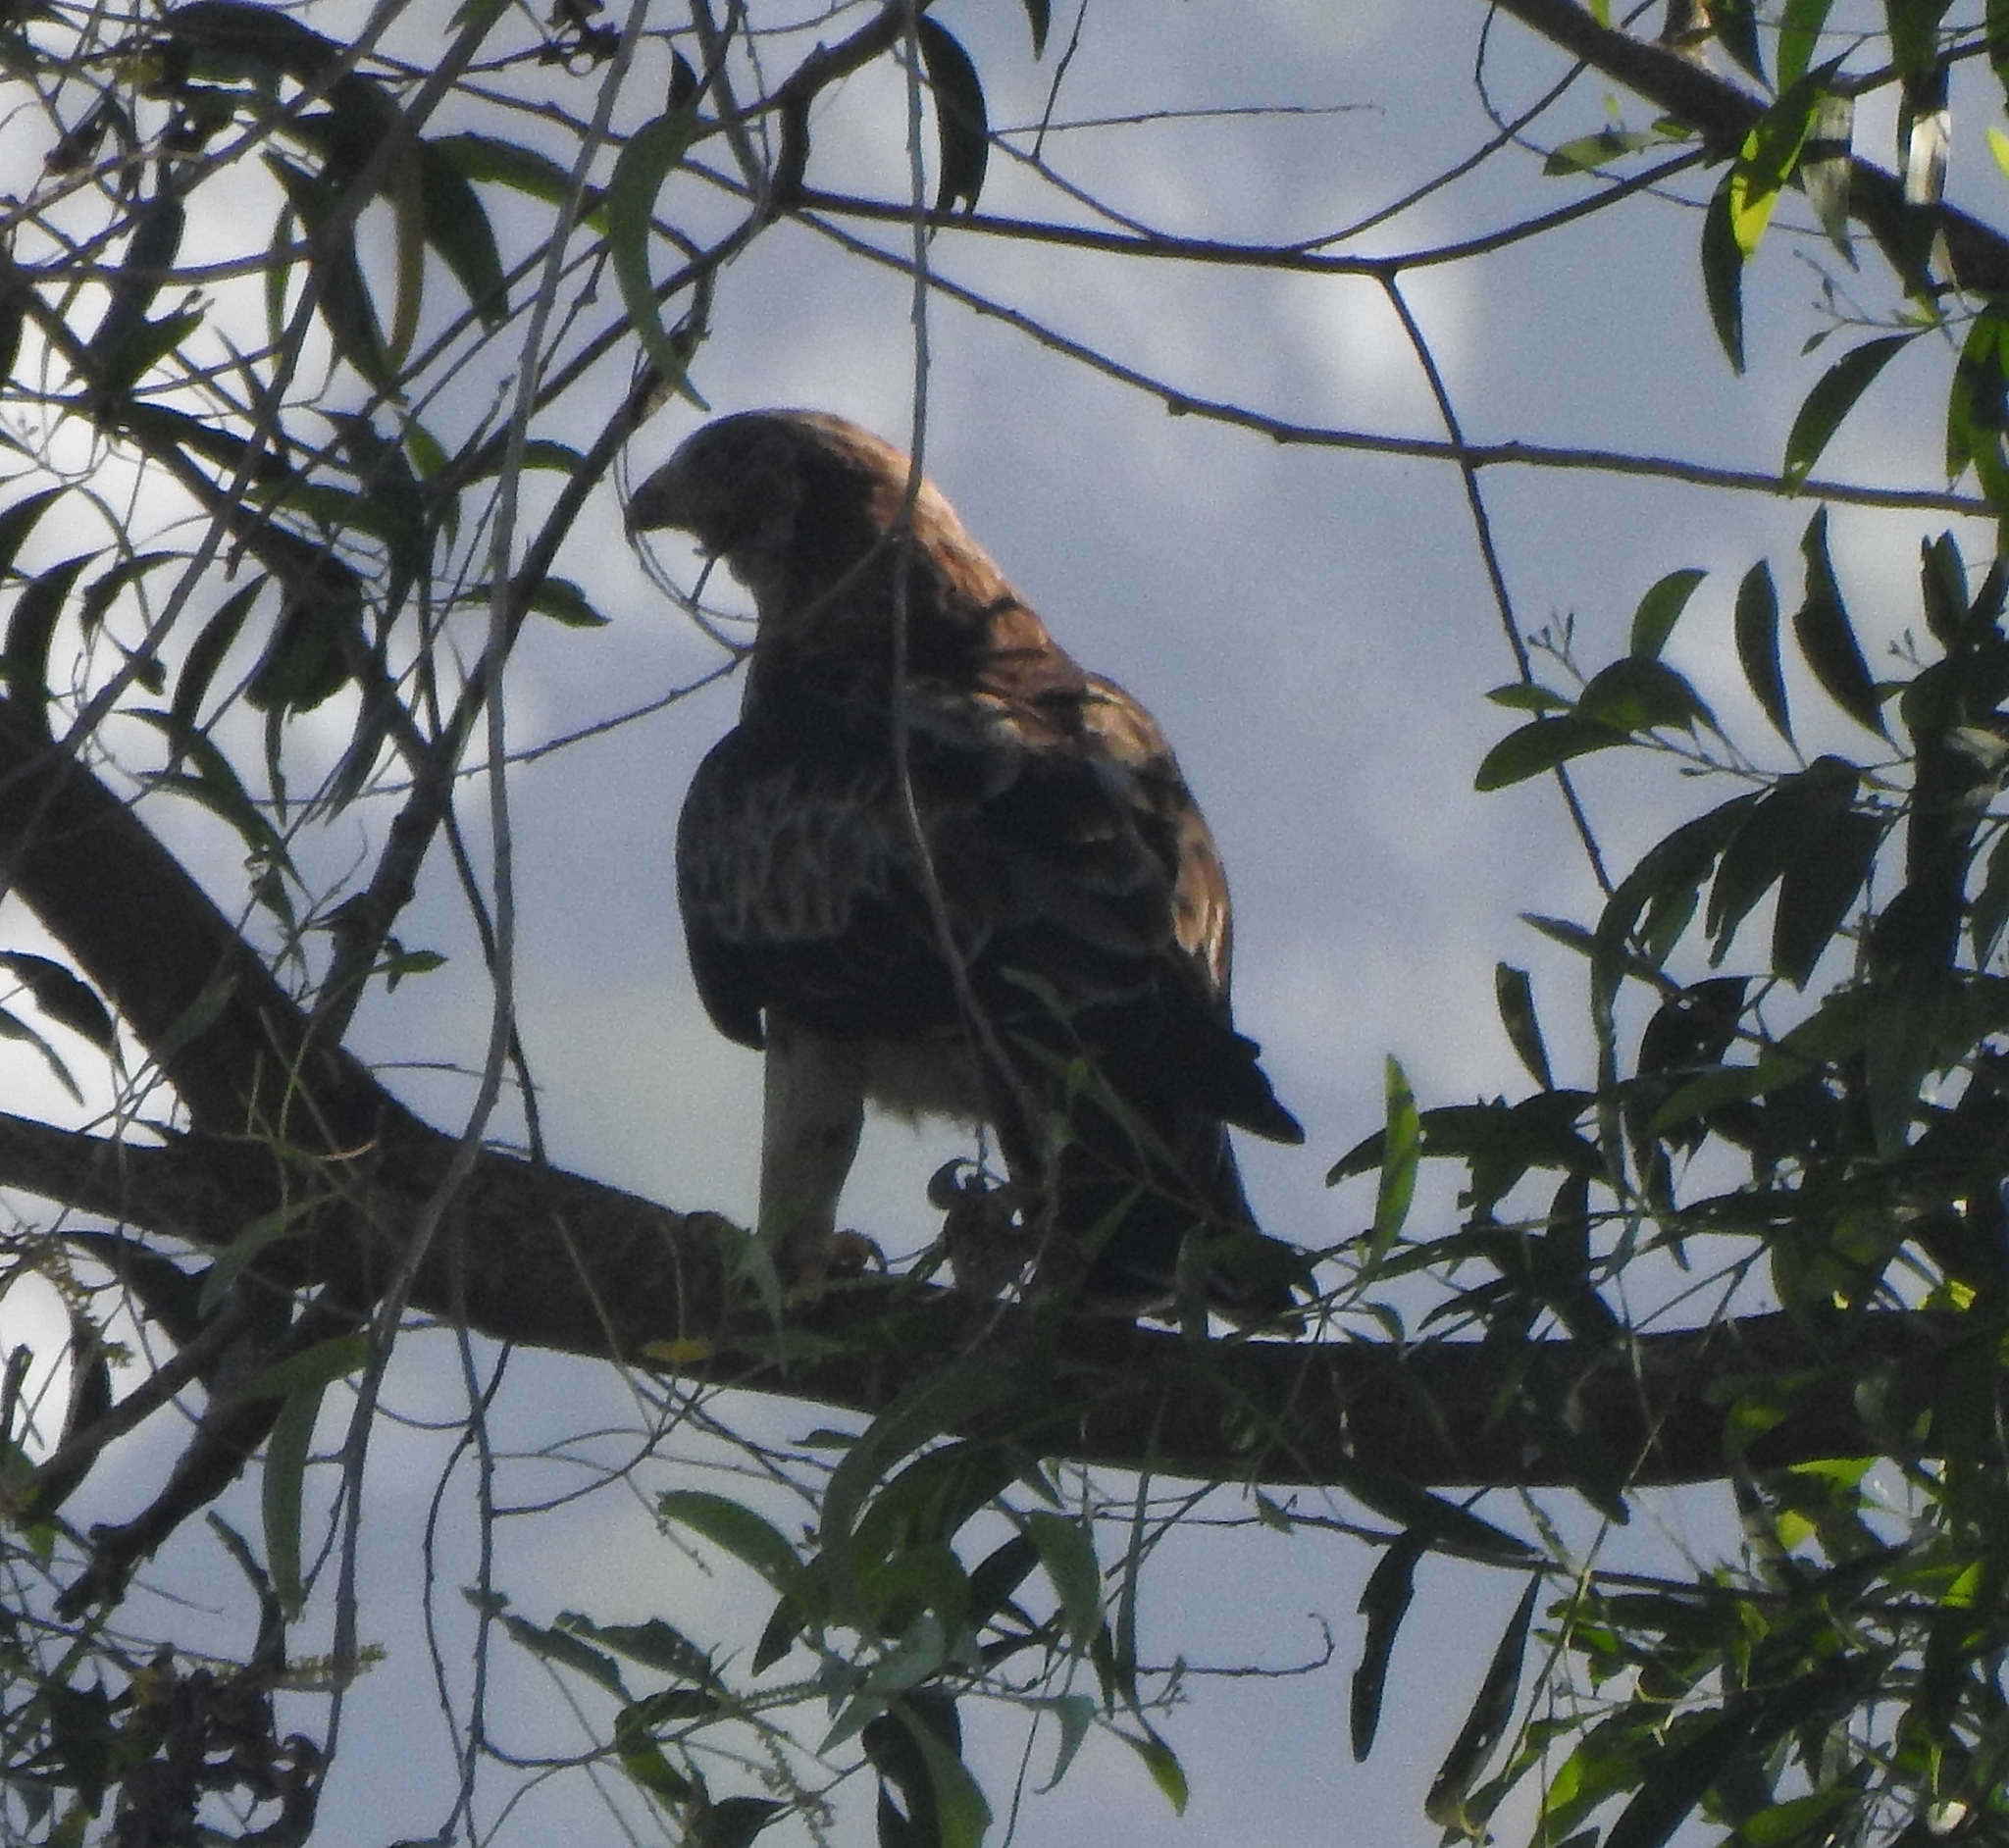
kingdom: Animalia
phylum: Chordata
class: Aves
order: Accipitriformes
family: Accipitridae
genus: Hieraaetus
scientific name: Hieraaetus pennatus
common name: Booted eagle
